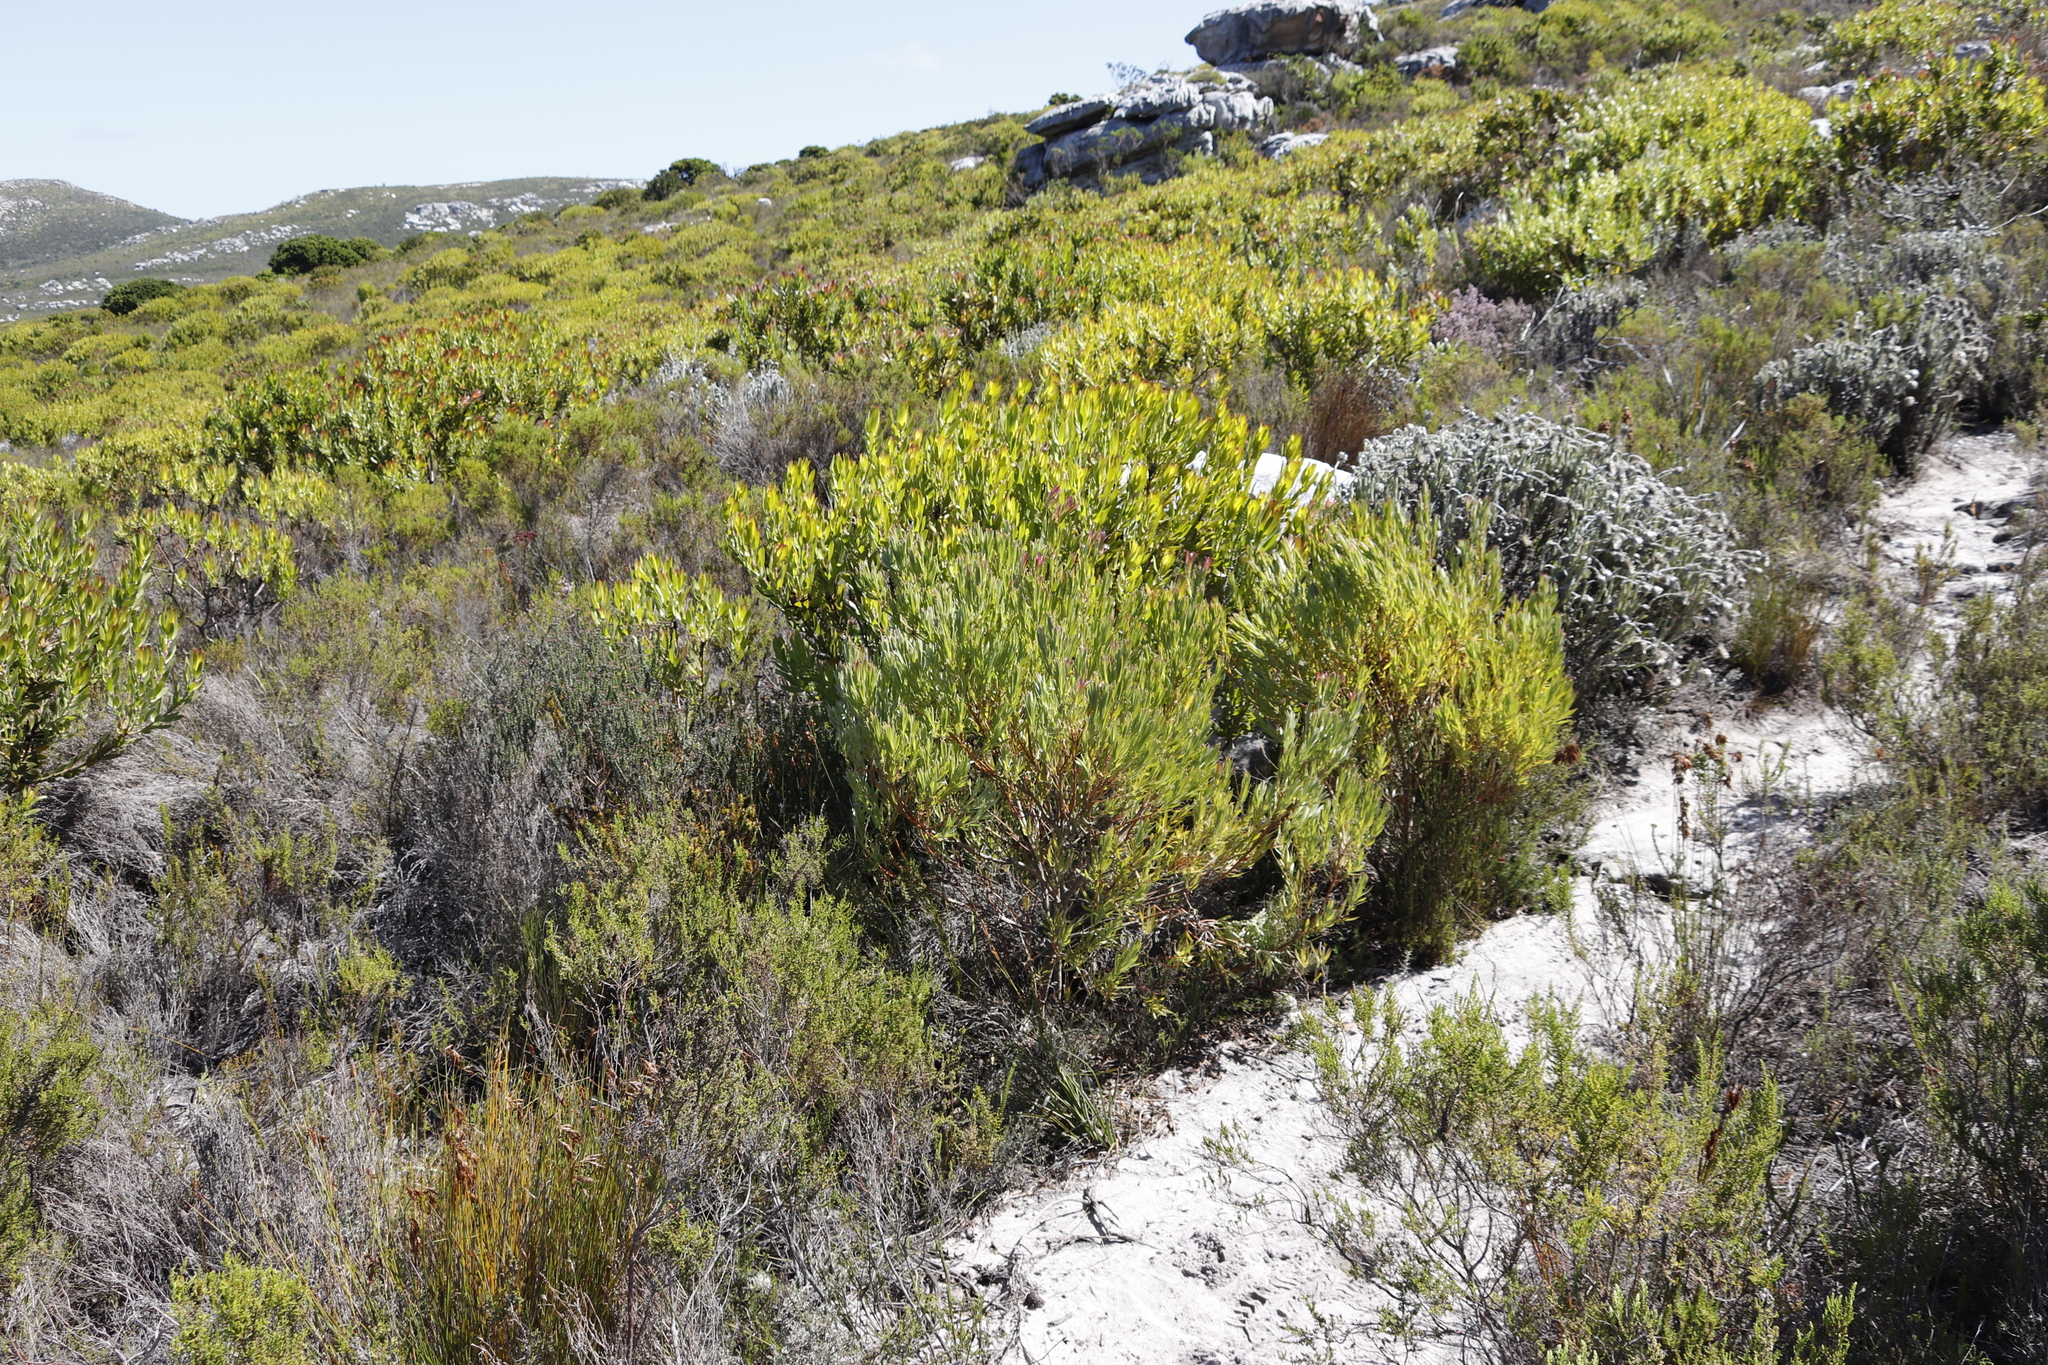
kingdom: Plantae
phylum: Tracheophyta
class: Magnoliopsida
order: Proteales
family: Proteaceae
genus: Leucadendron
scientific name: Leucadendron laureolum
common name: Golden sunshinebush
